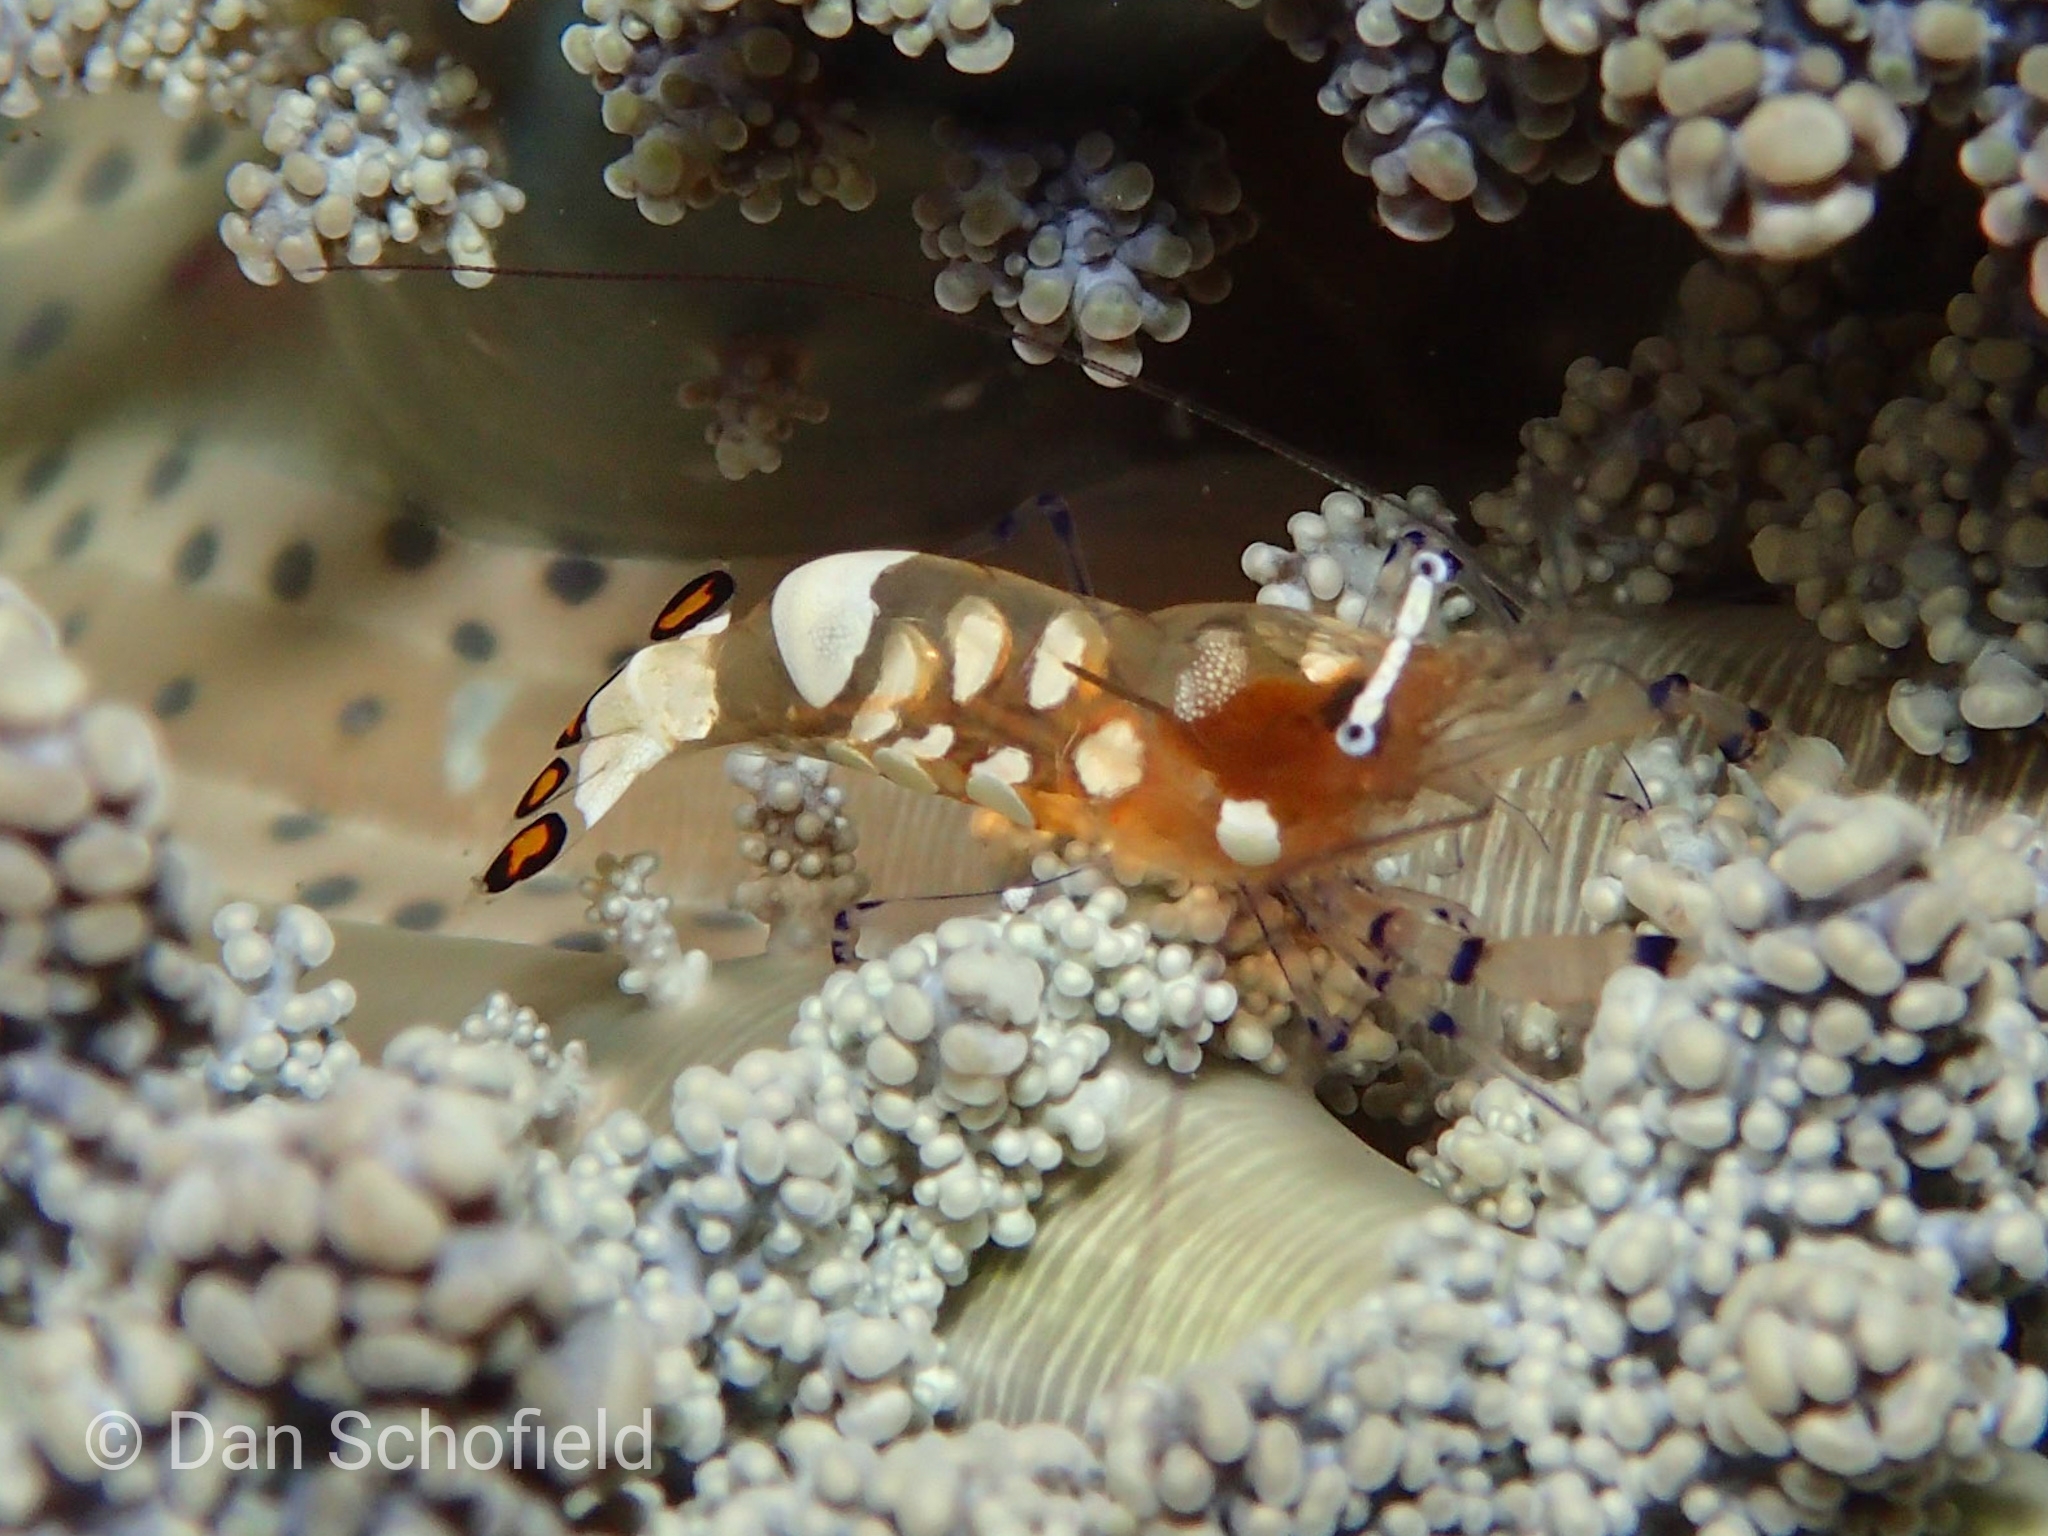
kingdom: Animalia
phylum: Arthropoda
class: Malacostraca
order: Decapoda
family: Palaemonidae
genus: Ancylocaris
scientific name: Ancylocaris brevicarpalis
